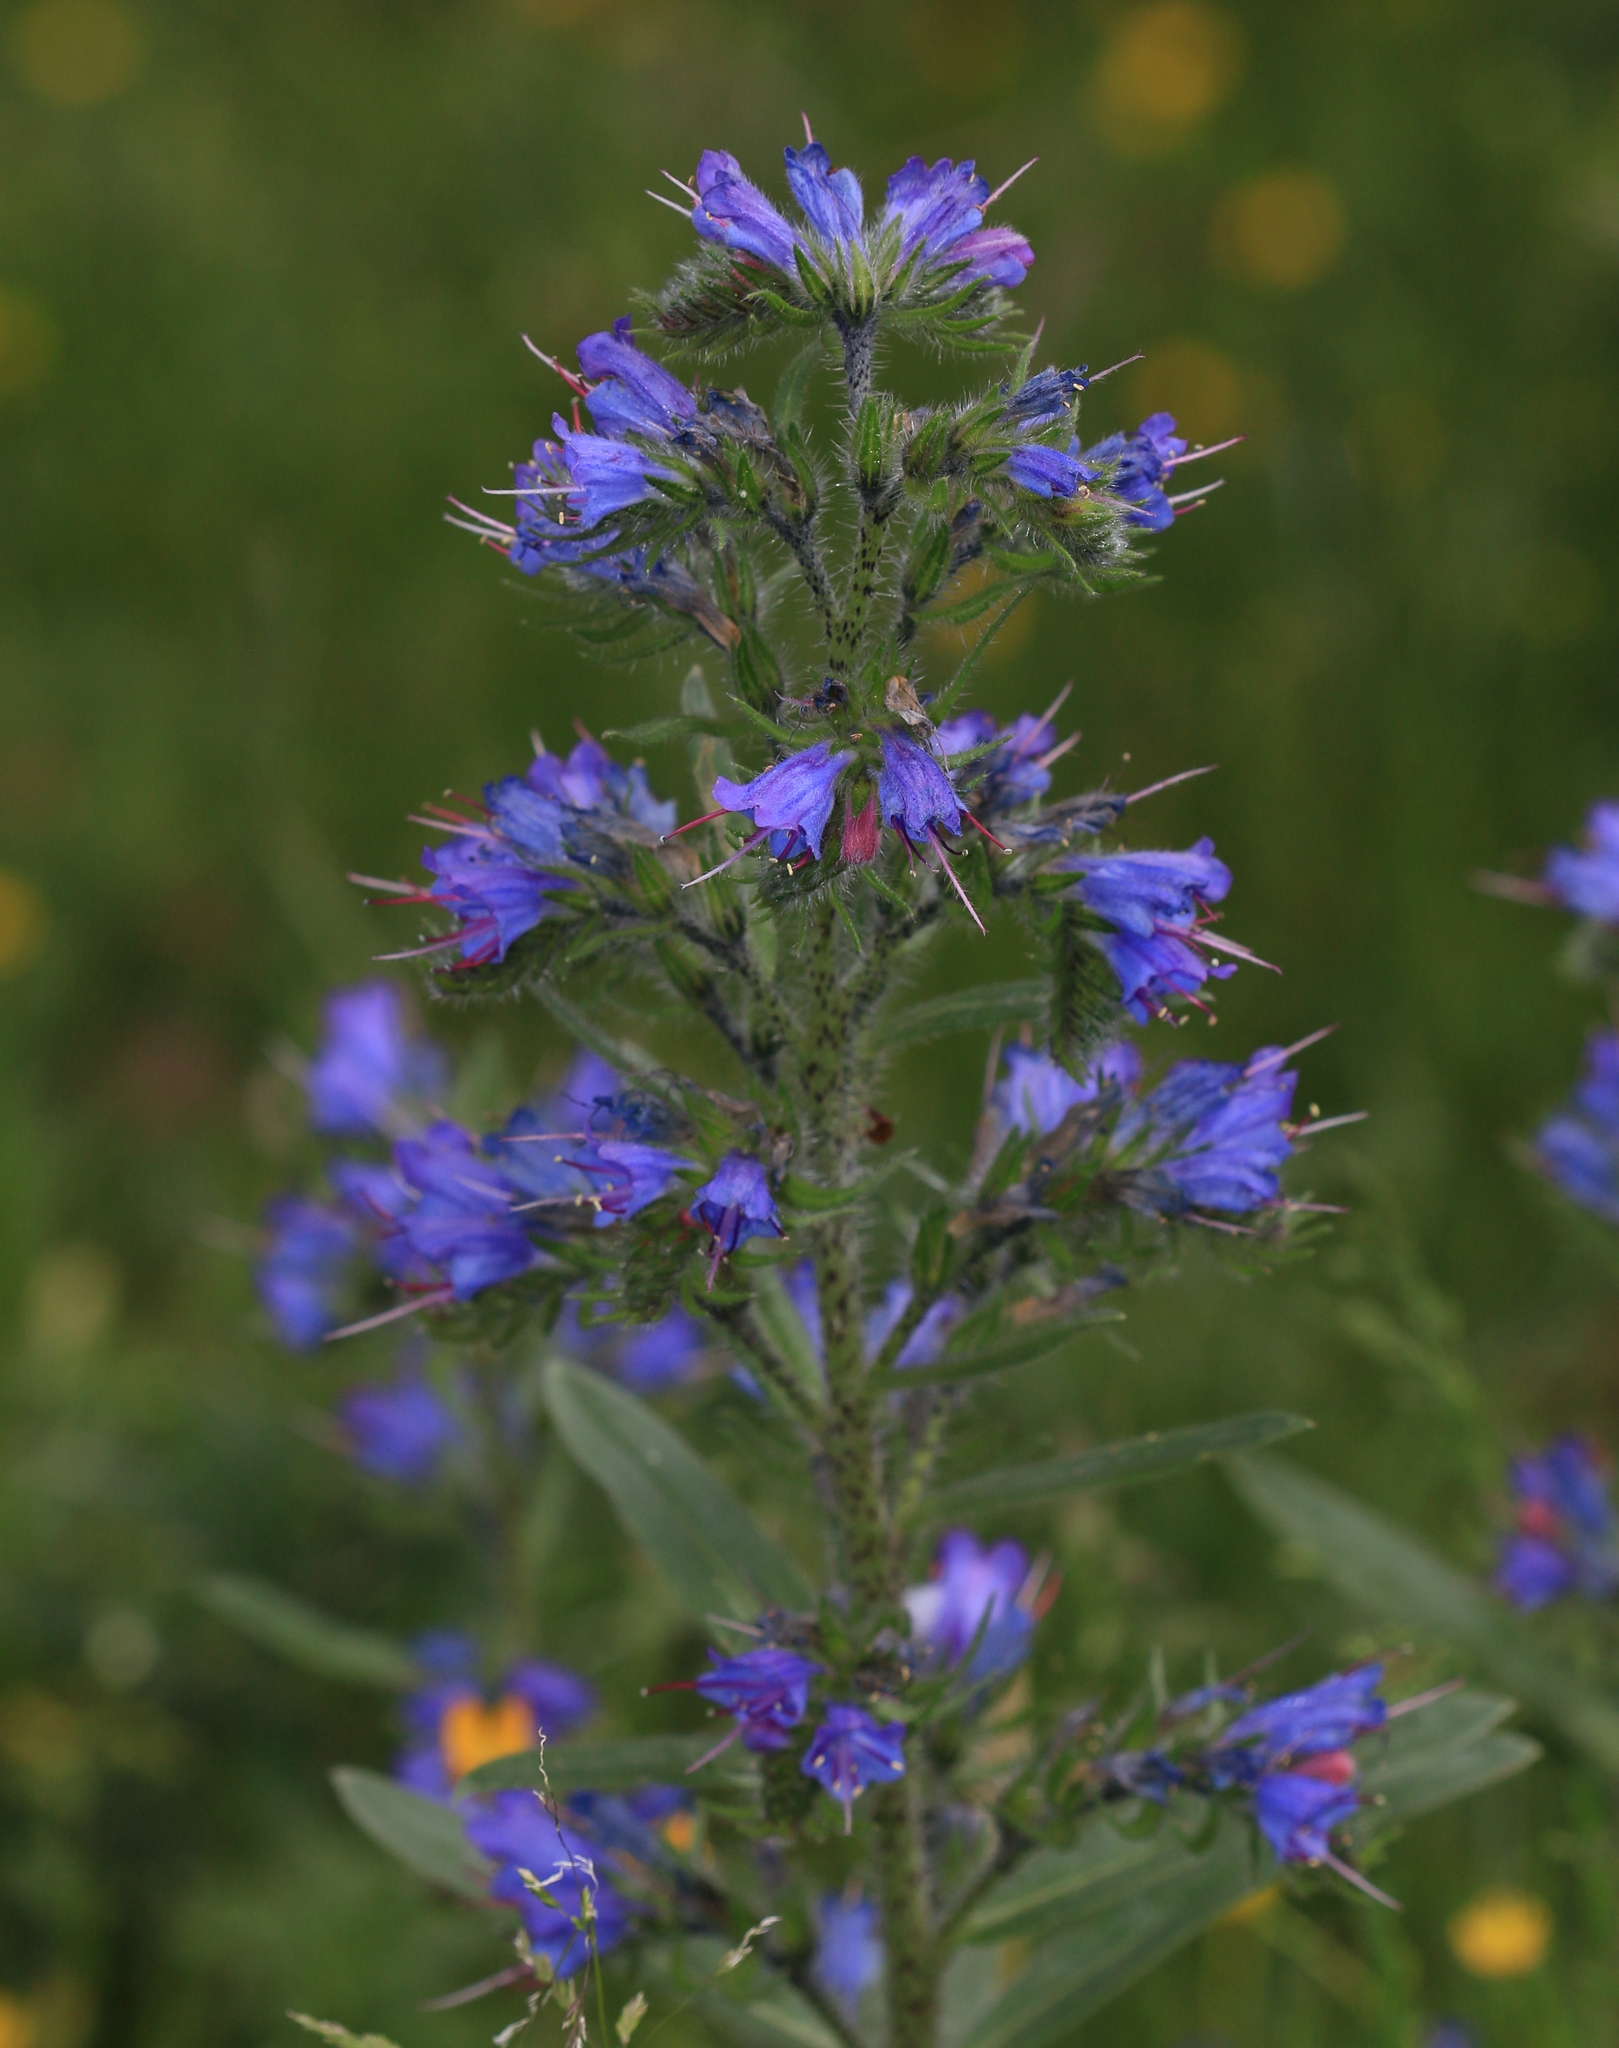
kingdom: Plantae
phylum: Tracheophyta
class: Magnoliopsida
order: Boraginales
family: Boraginaceae
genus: Echium
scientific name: Echium vulgare
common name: Common viper's bugloss
